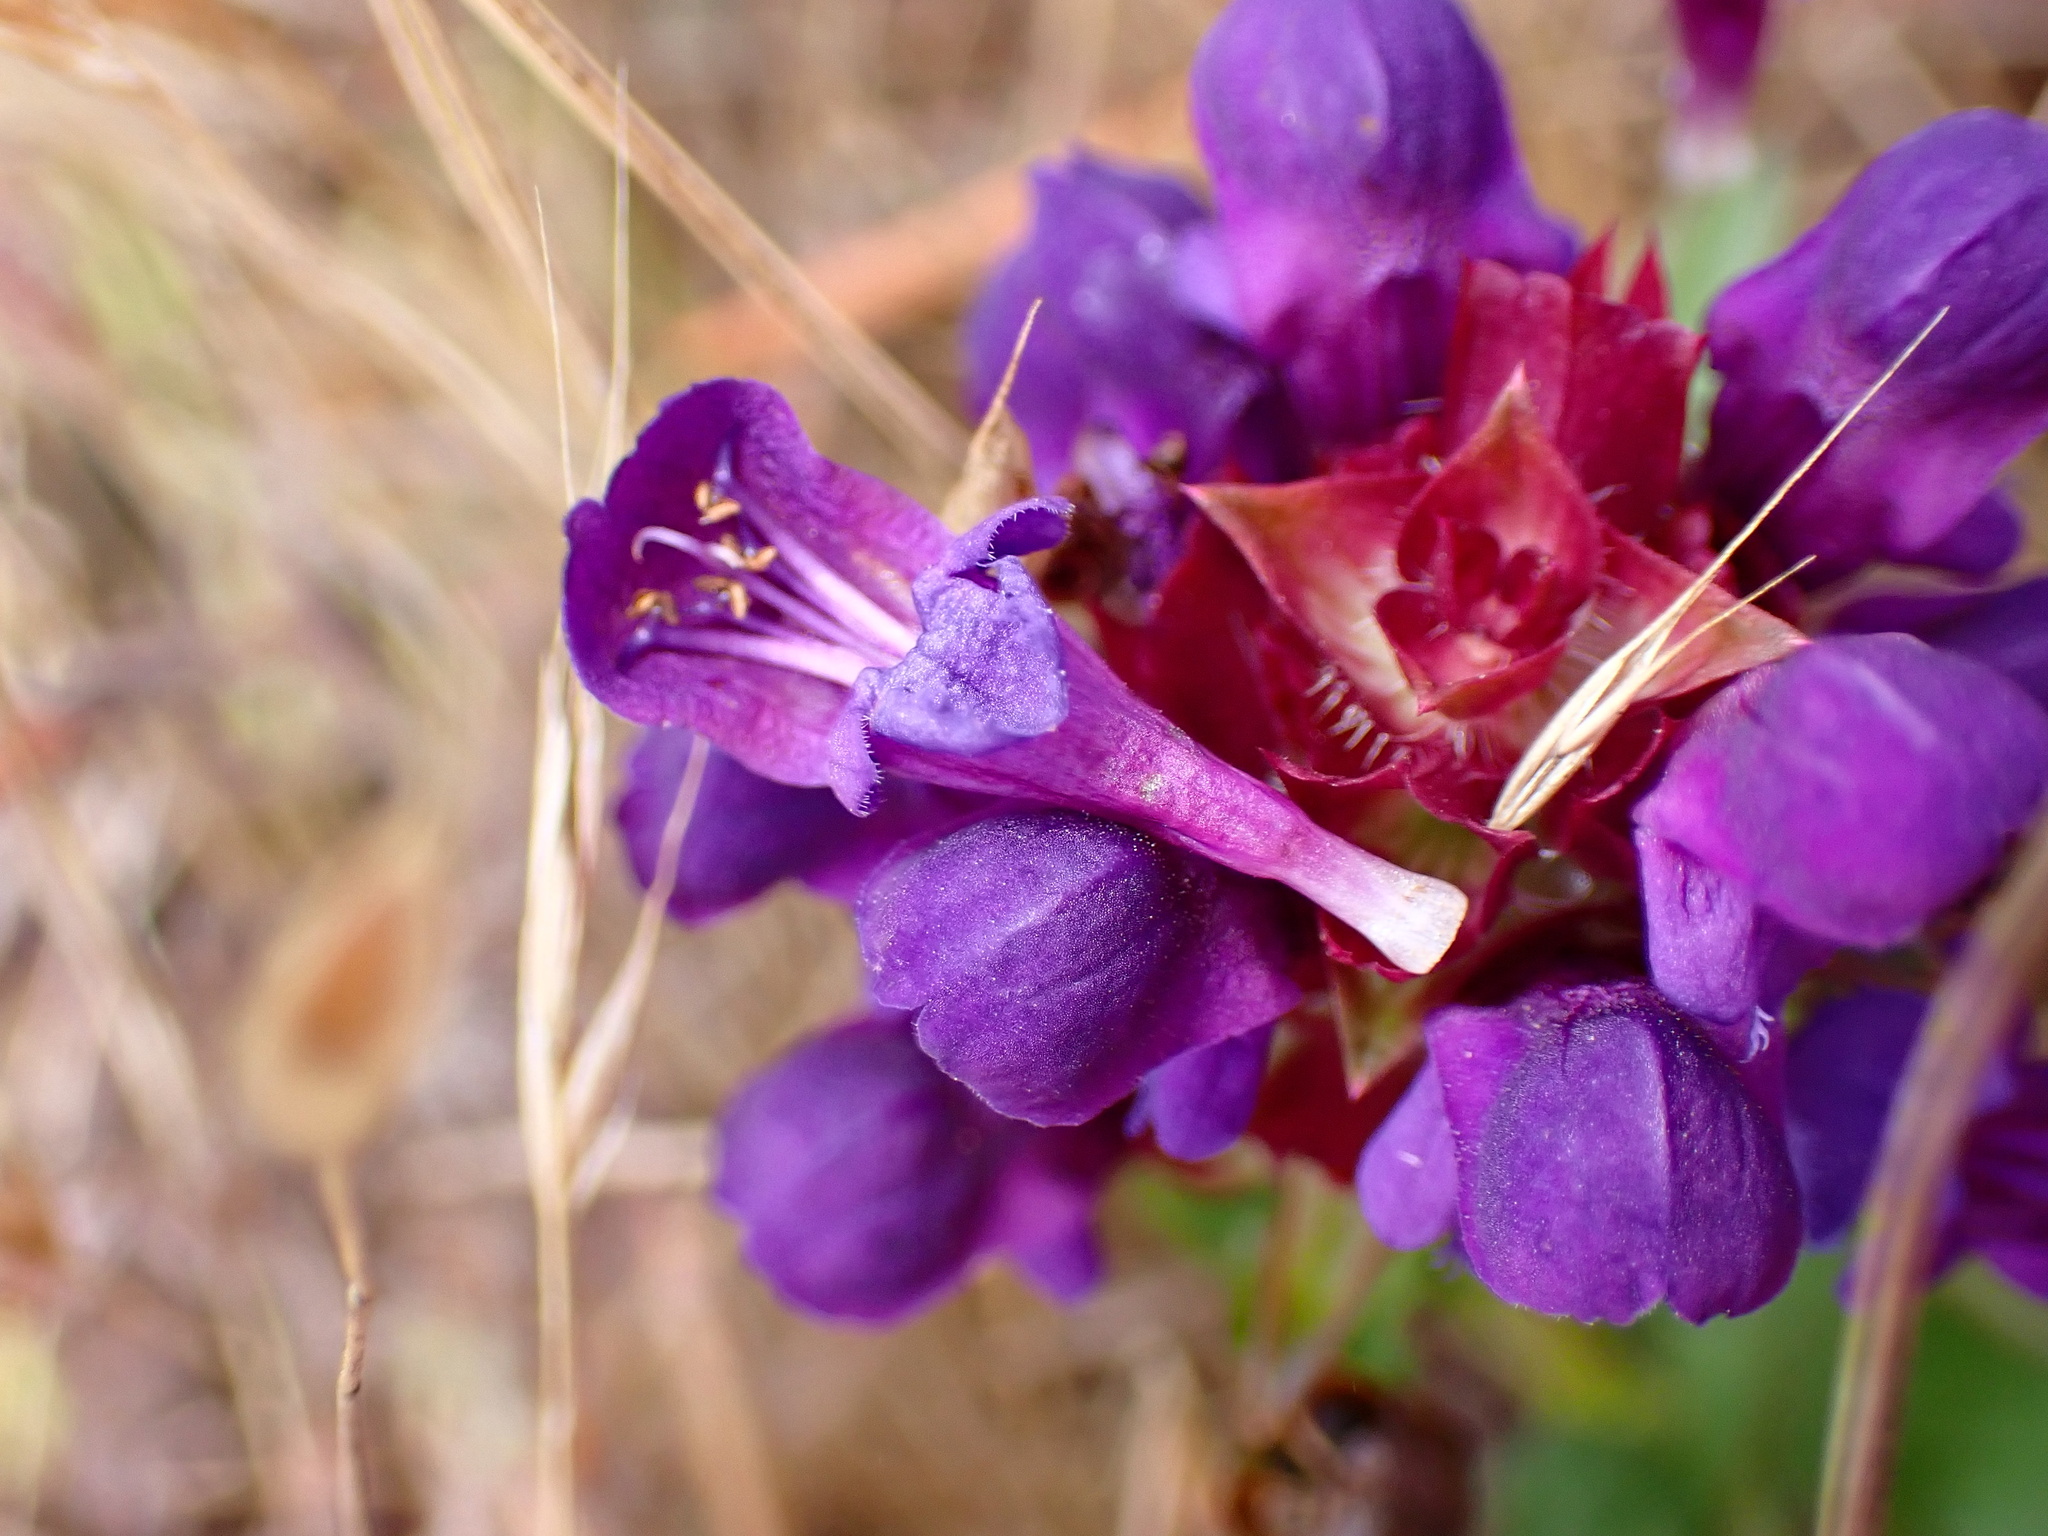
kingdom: Plantae
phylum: Tracheophyta
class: Magnoliopsida
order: Lamiales
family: Lamiaceae
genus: Prunella
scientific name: Prunella vulgaris
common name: Heal-all
